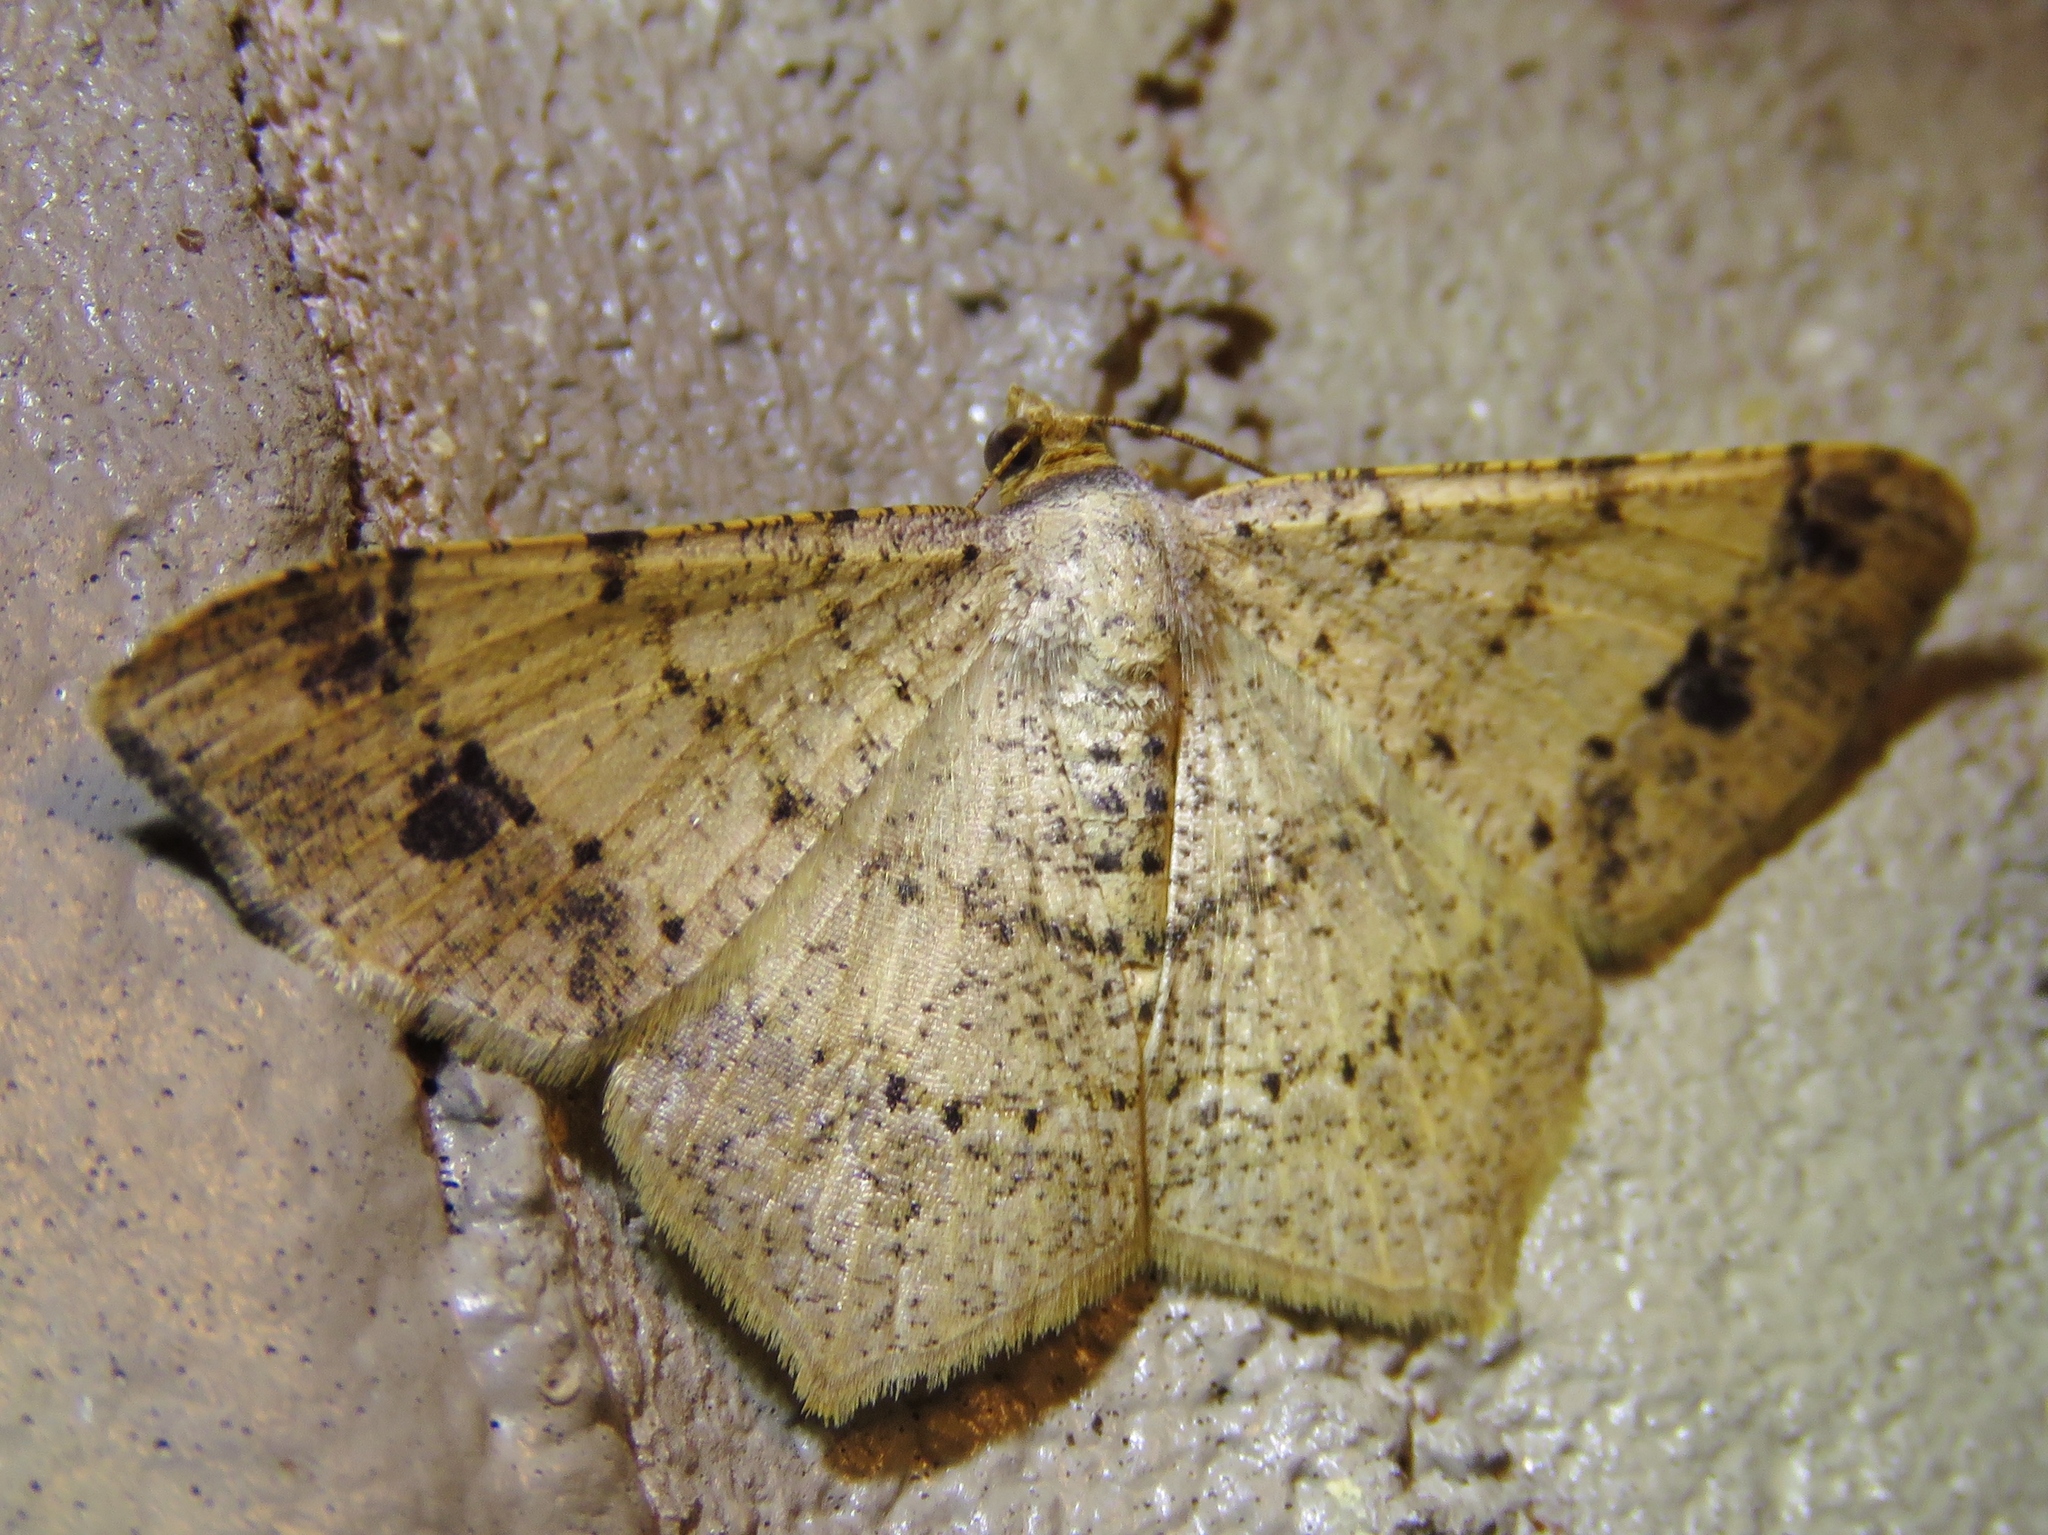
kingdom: Animalia
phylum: Arthropoda
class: Insecta
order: Lepidoptera
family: Geometridae
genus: Macaria
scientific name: Macaria abydata
